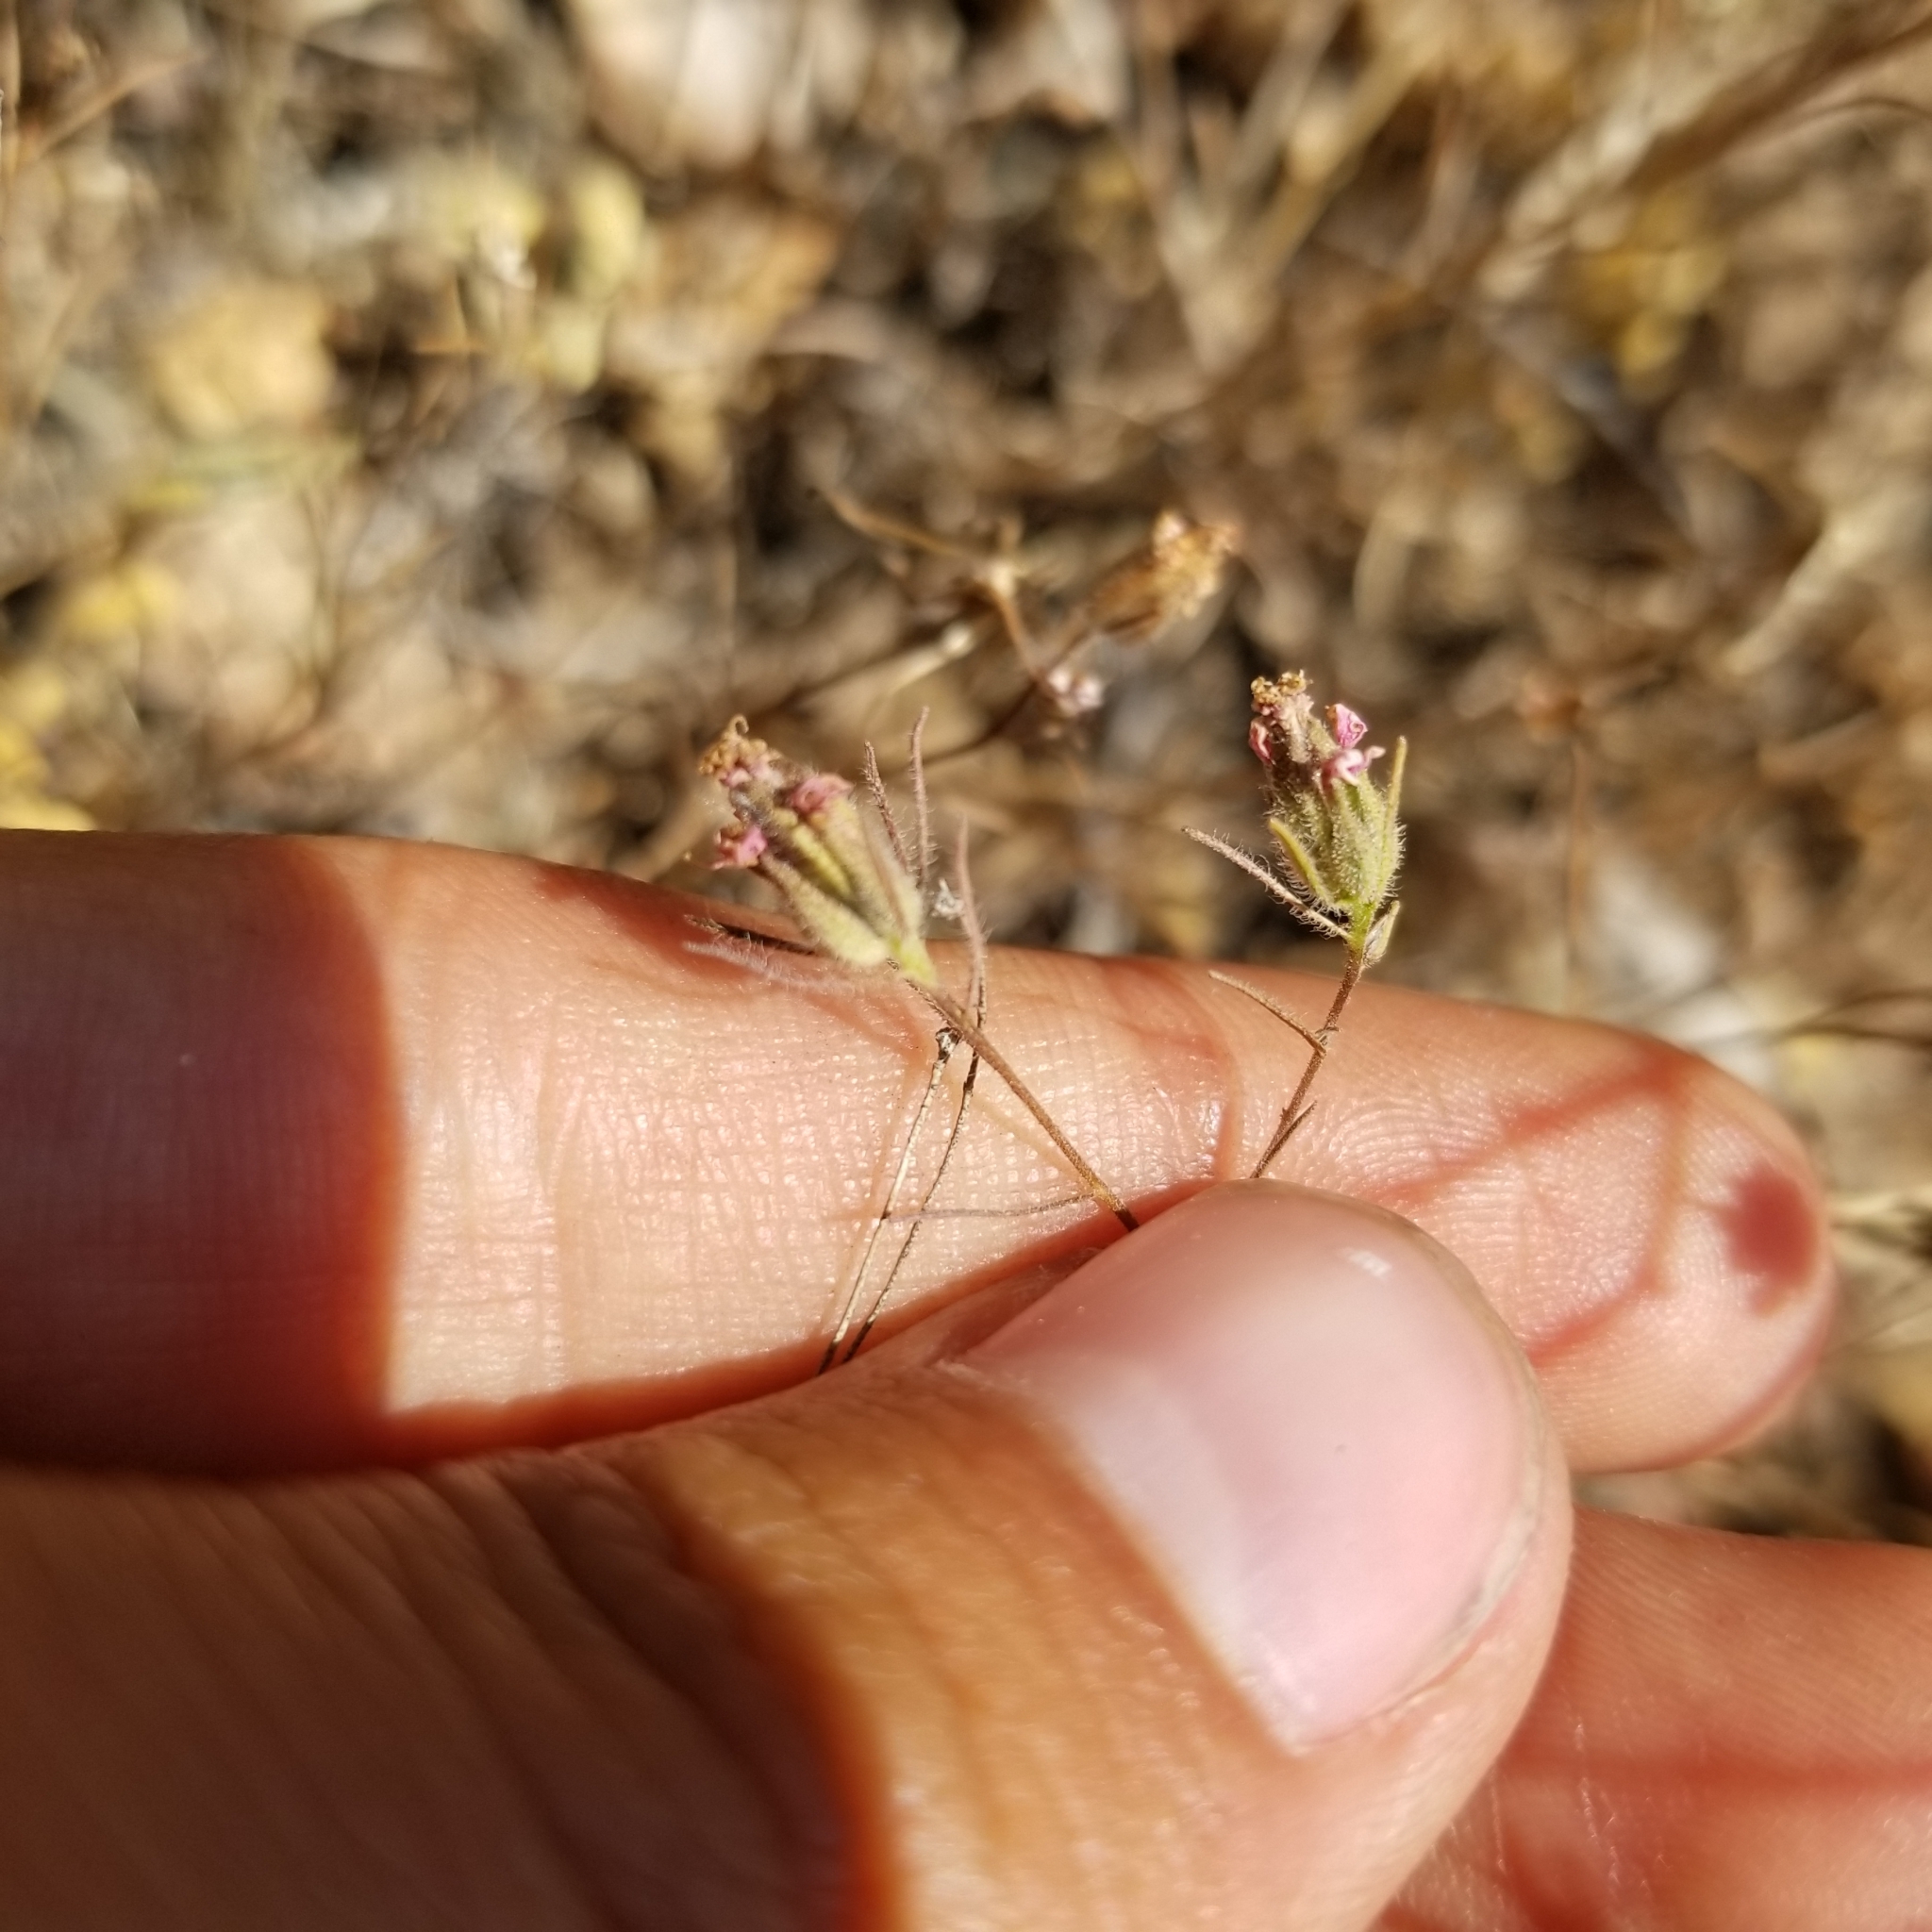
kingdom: Plantae
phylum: Tracheophyta
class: Magnoliopsida
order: Asterales
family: Asteraceae
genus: Osmadenia
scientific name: Osmadenia tenella
